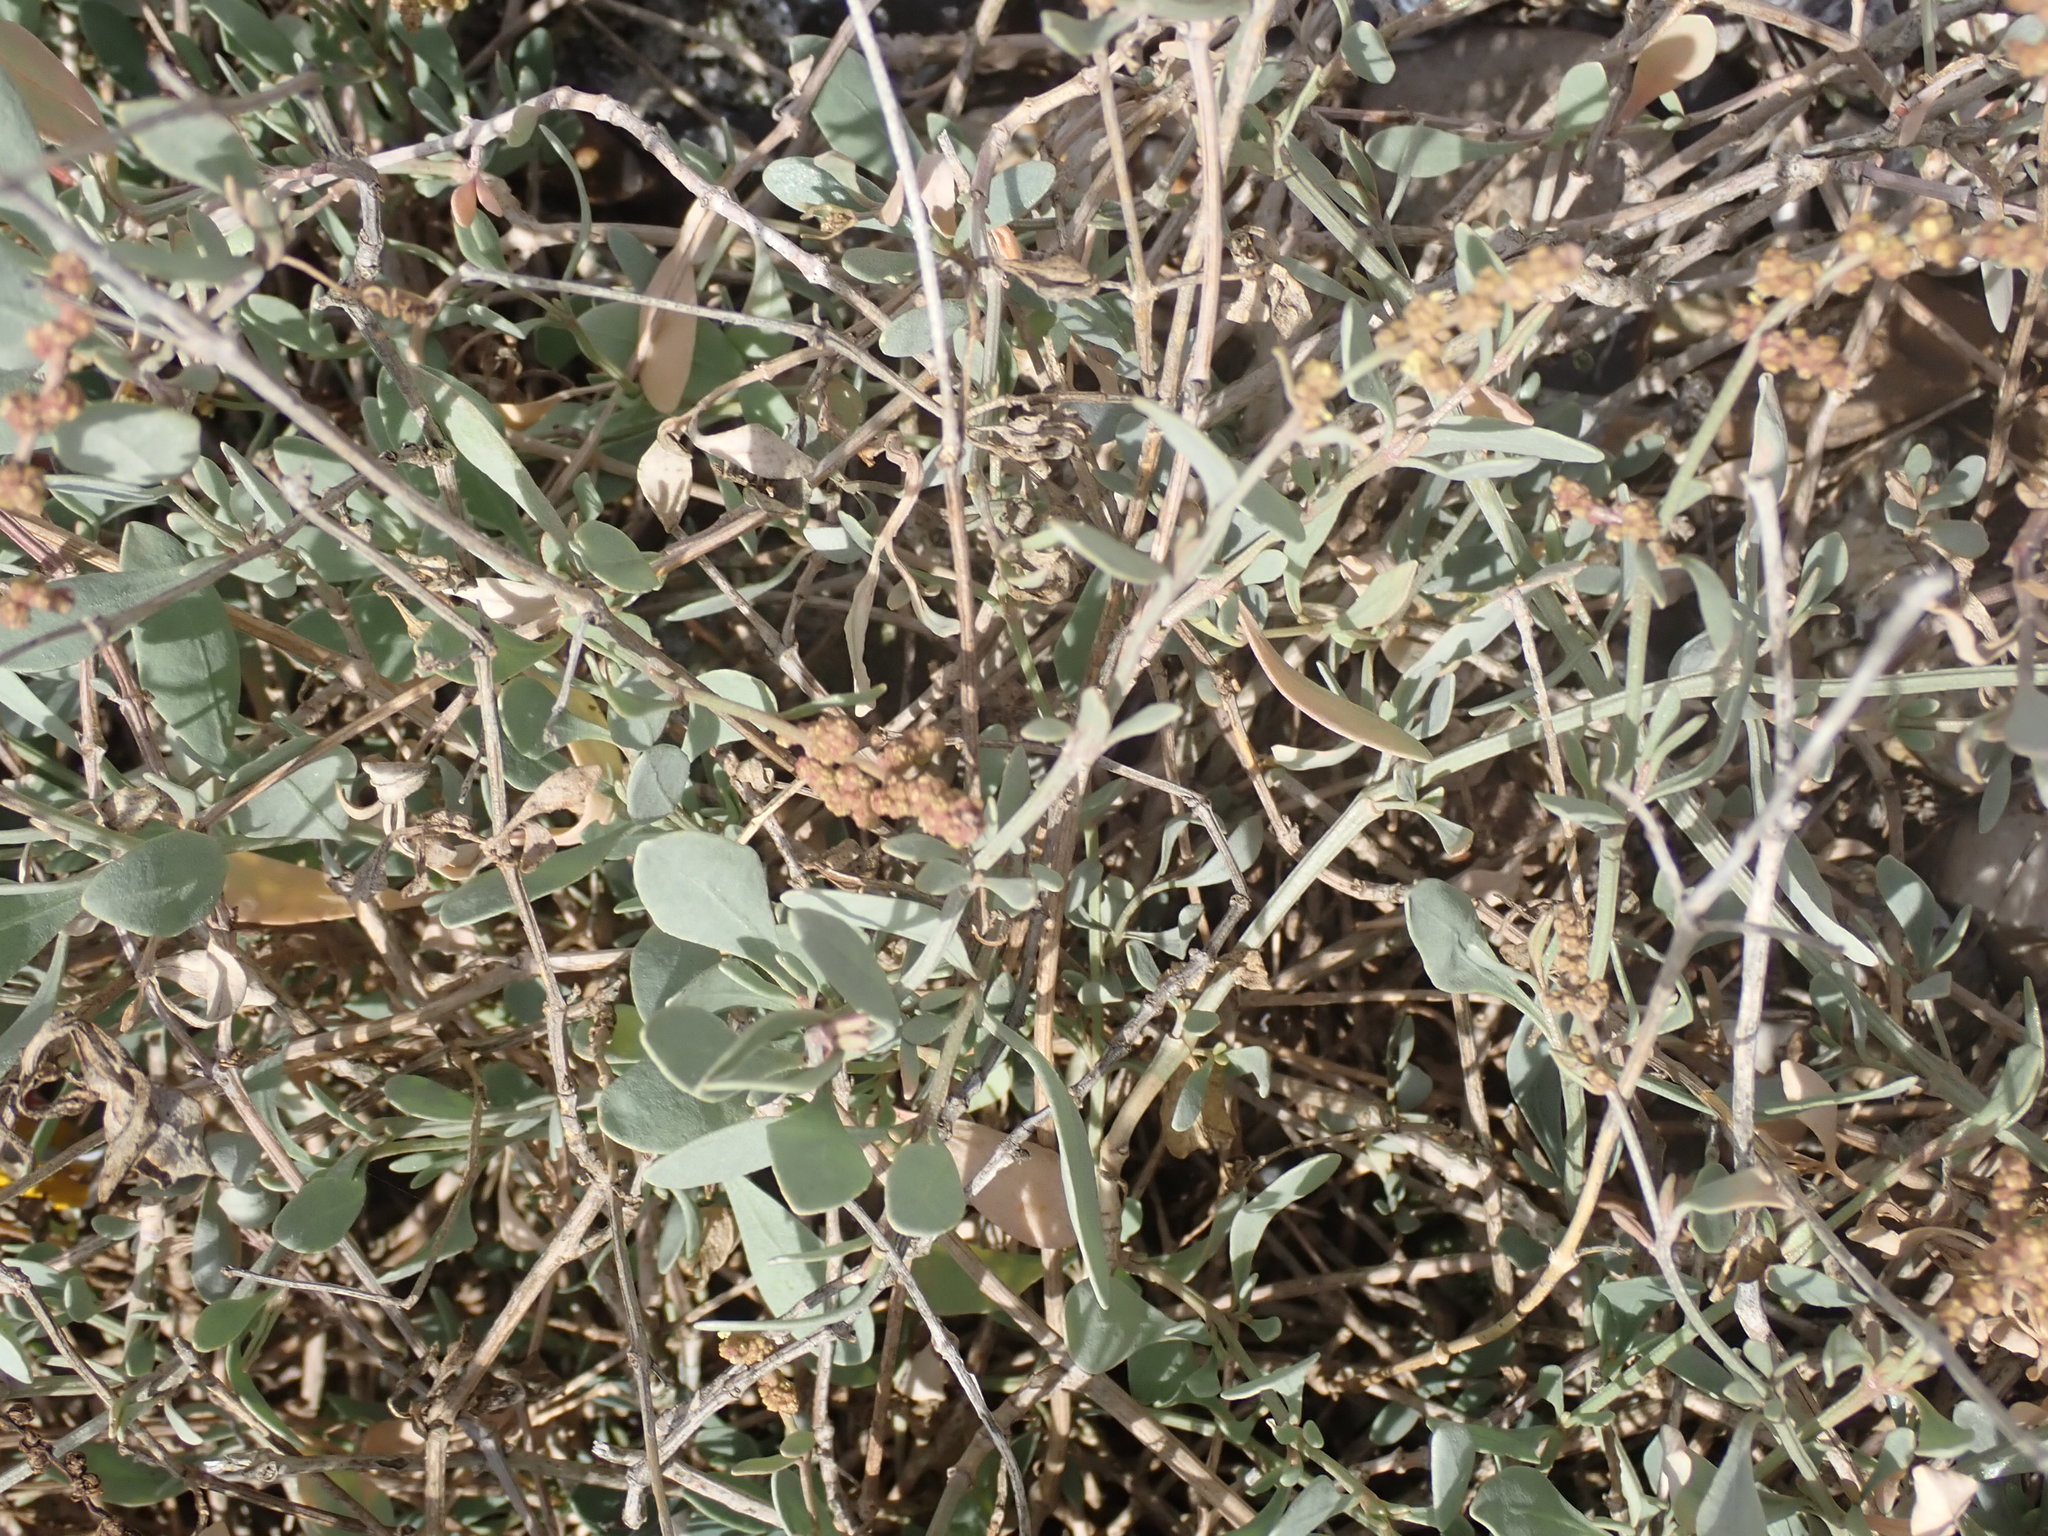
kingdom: Plantae
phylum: Tracheophyta
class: Magnoliopsida
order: Caryophyllales
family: Amaranthaceae
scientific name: Amaranthaceae
